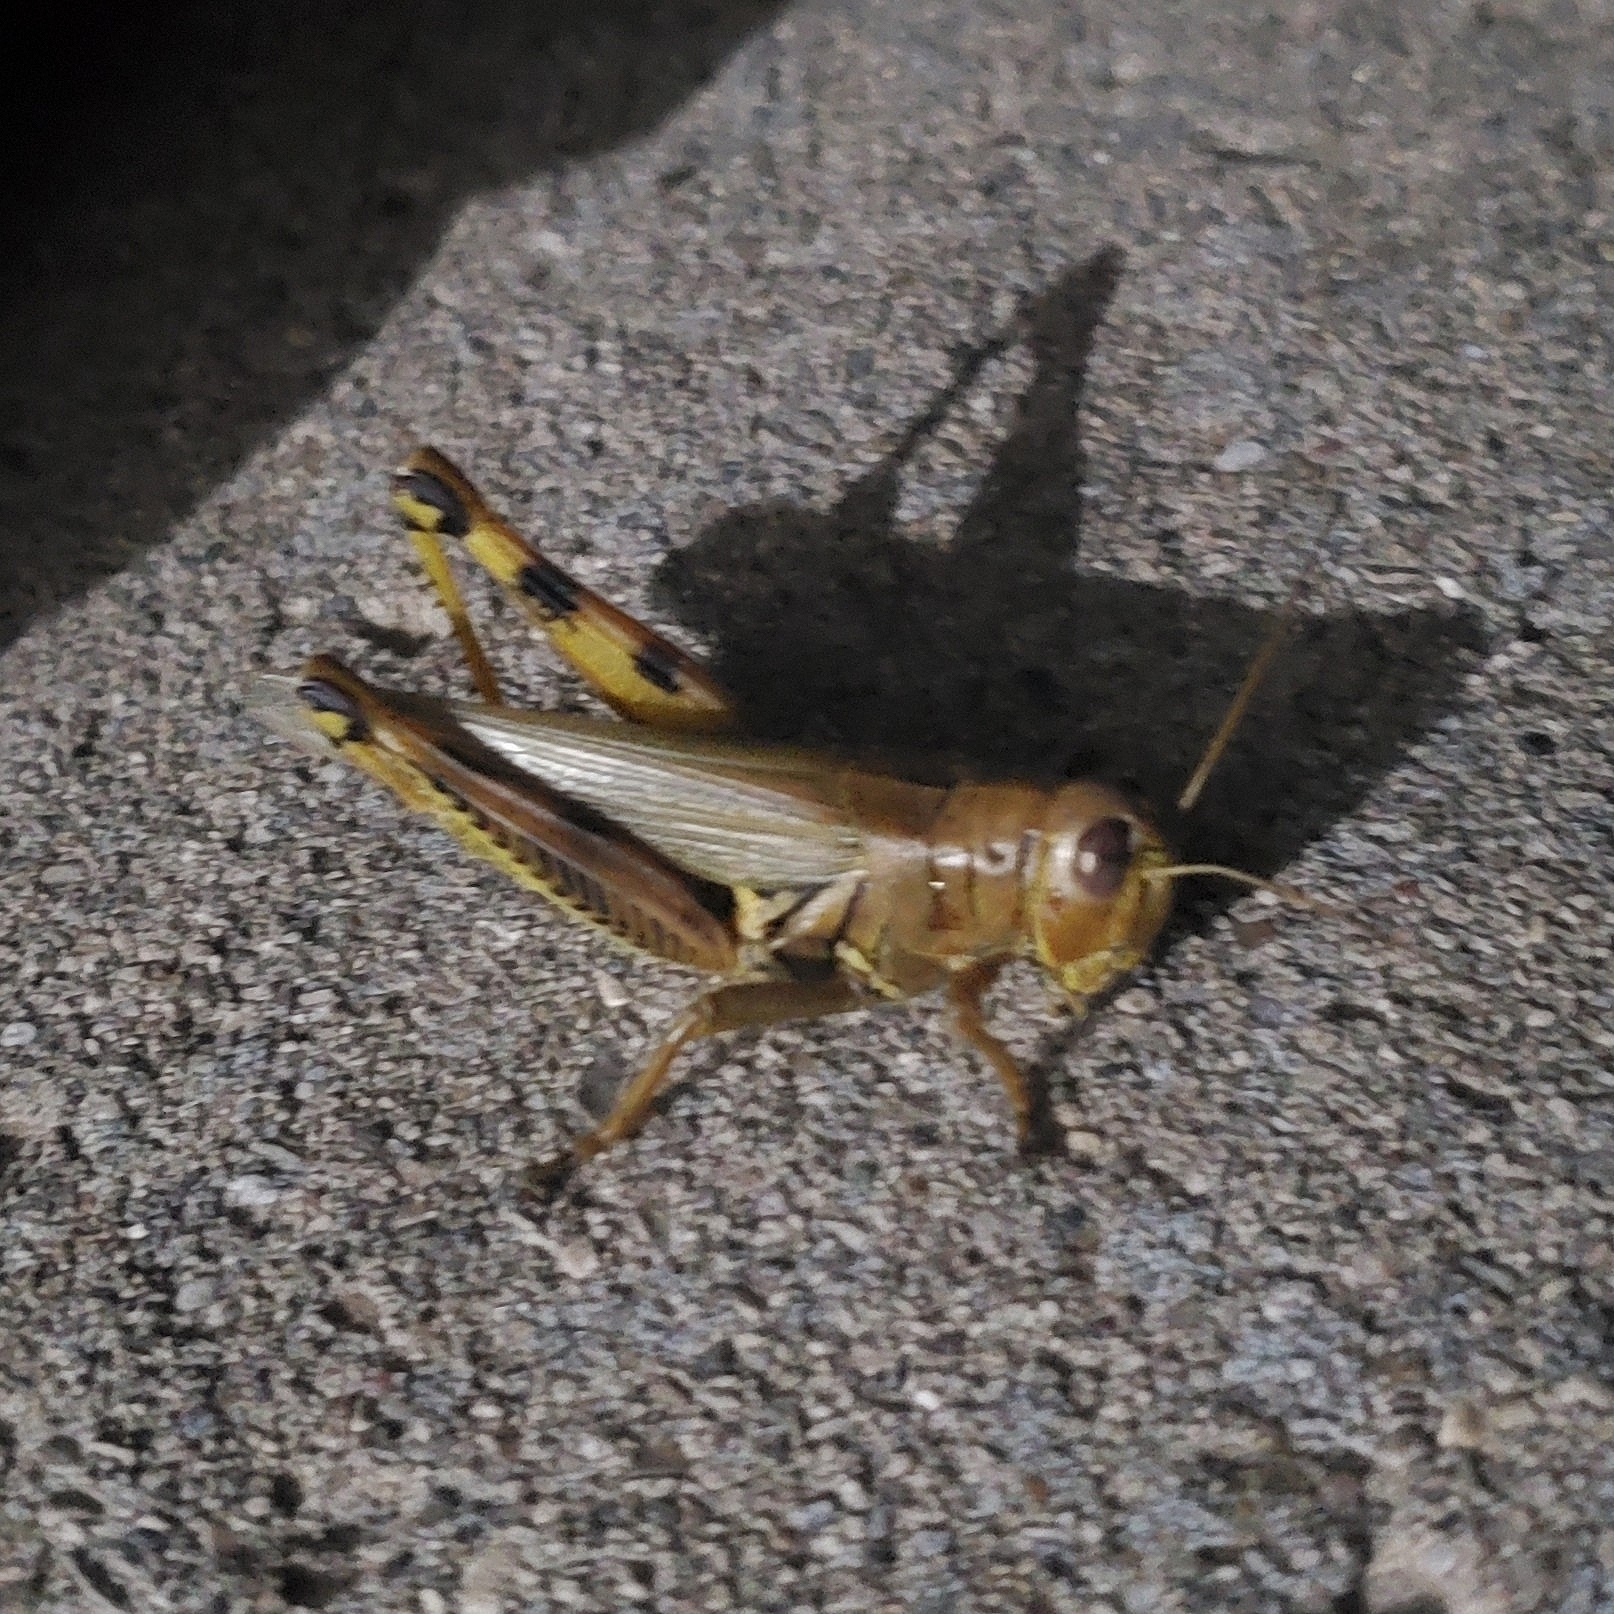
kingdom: Animalia
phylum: Arthropoda
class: Insecta
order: Orthoptera
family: Acrididae
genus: Melanoplus
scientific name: Melanoplus differentialis
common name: Differential grasshopper
